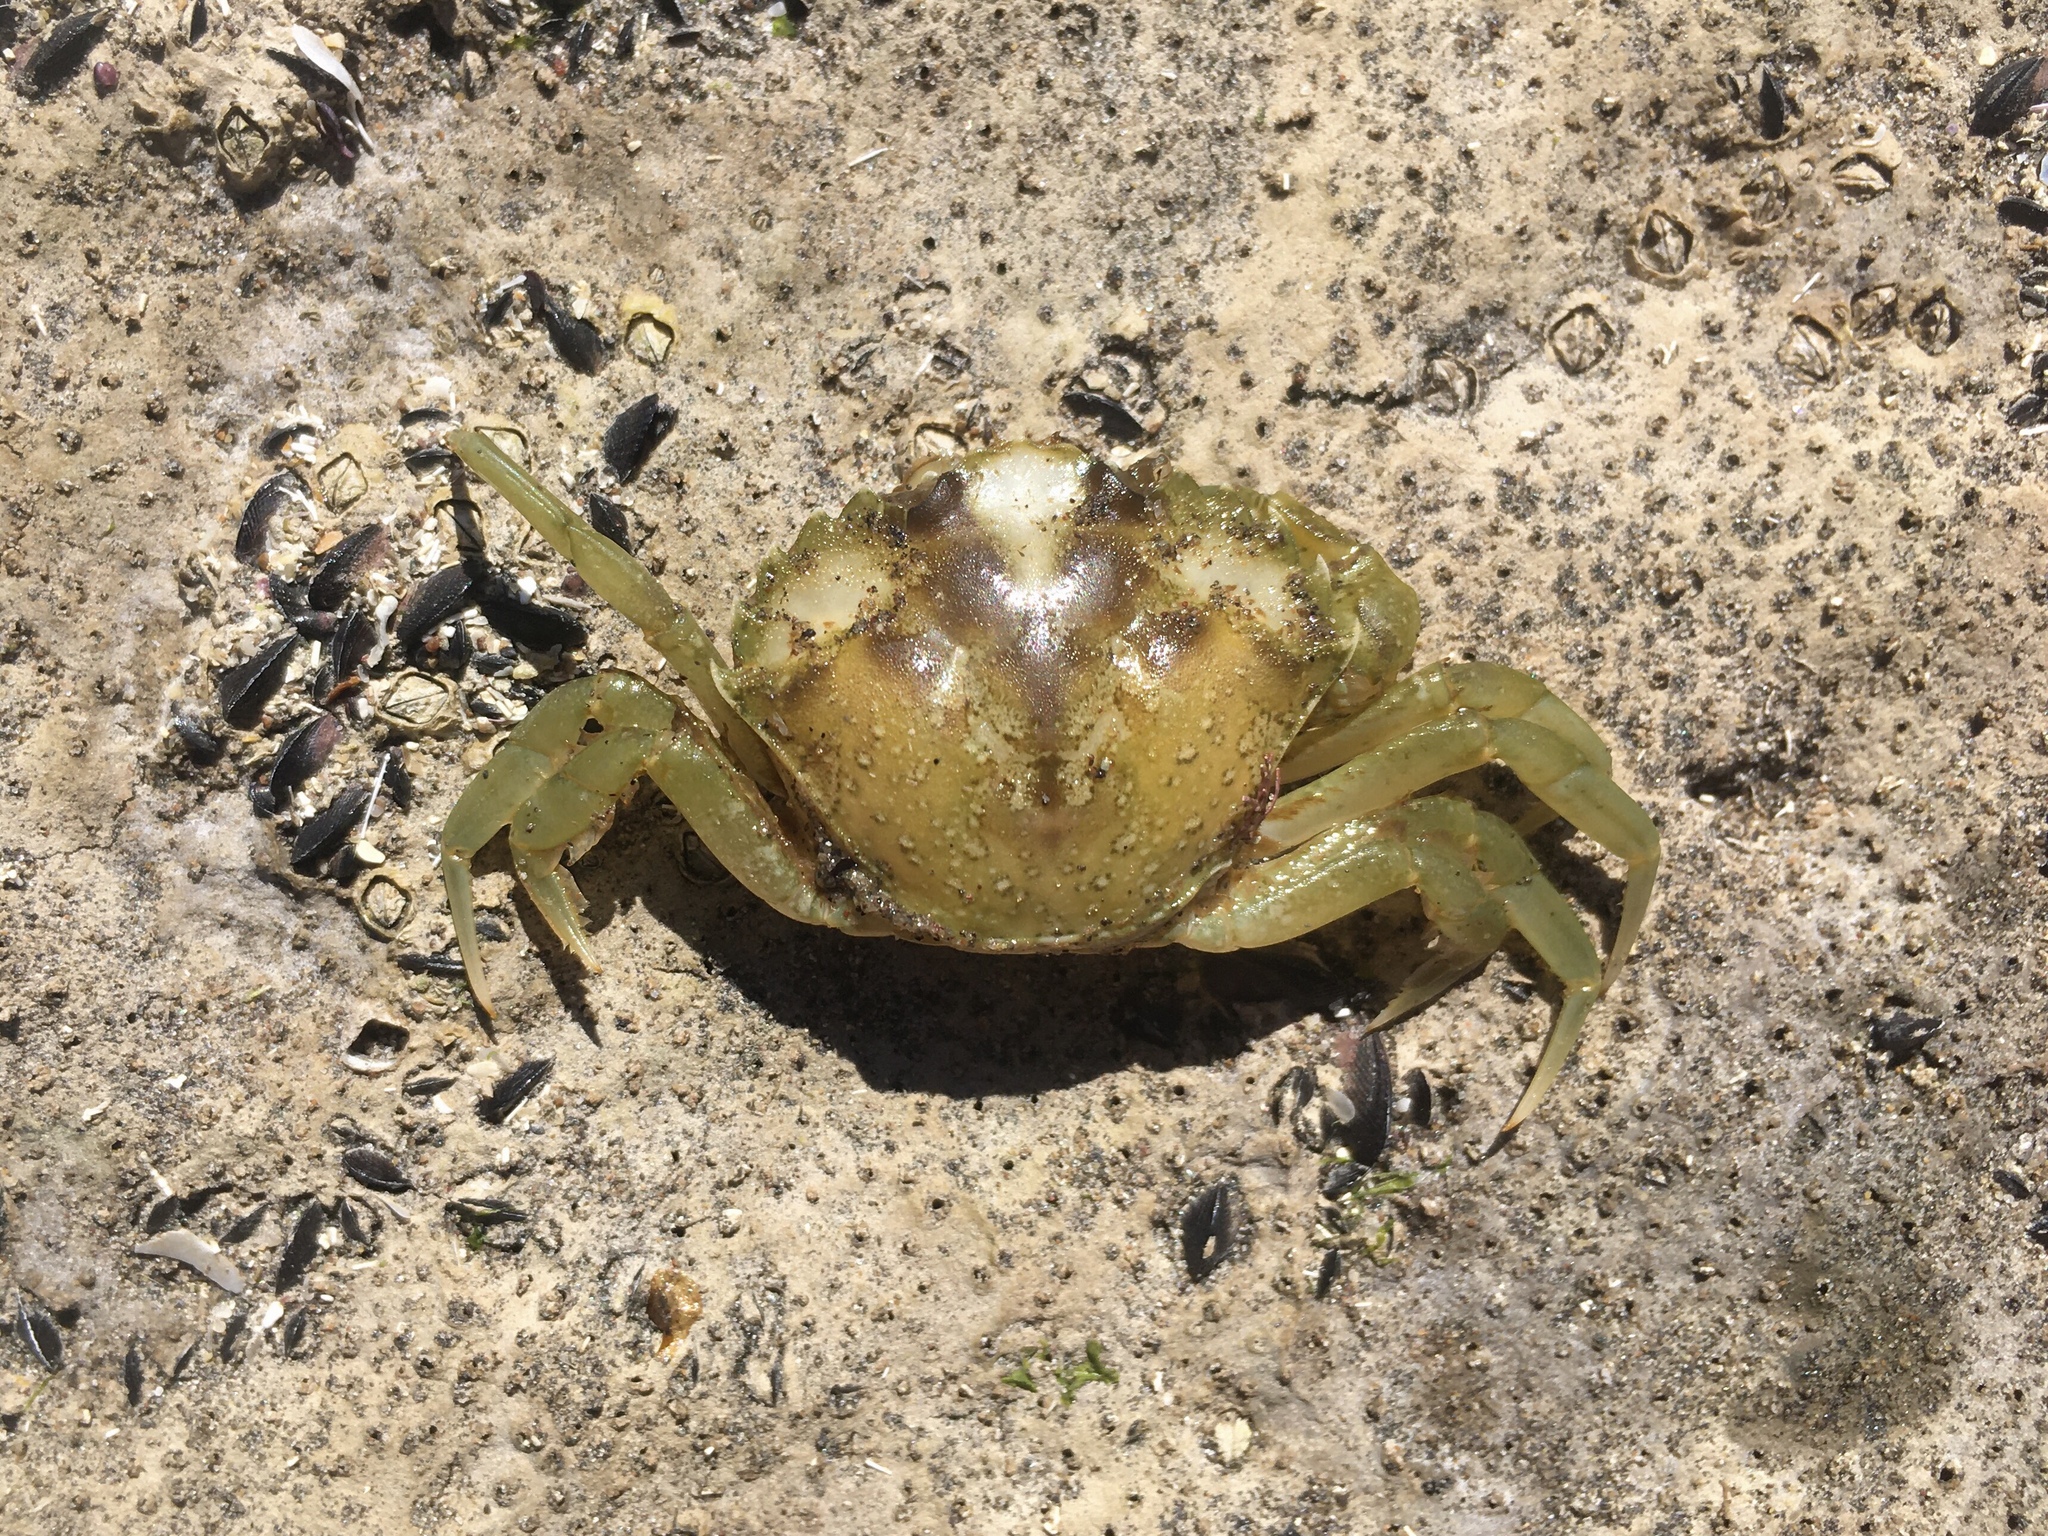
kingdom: Animalia
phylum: Arthropoda
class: Malacostraca
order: Decapoda
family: Carcinidae
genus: Carcinus
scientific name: Carcinus maenas
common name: European green crab
